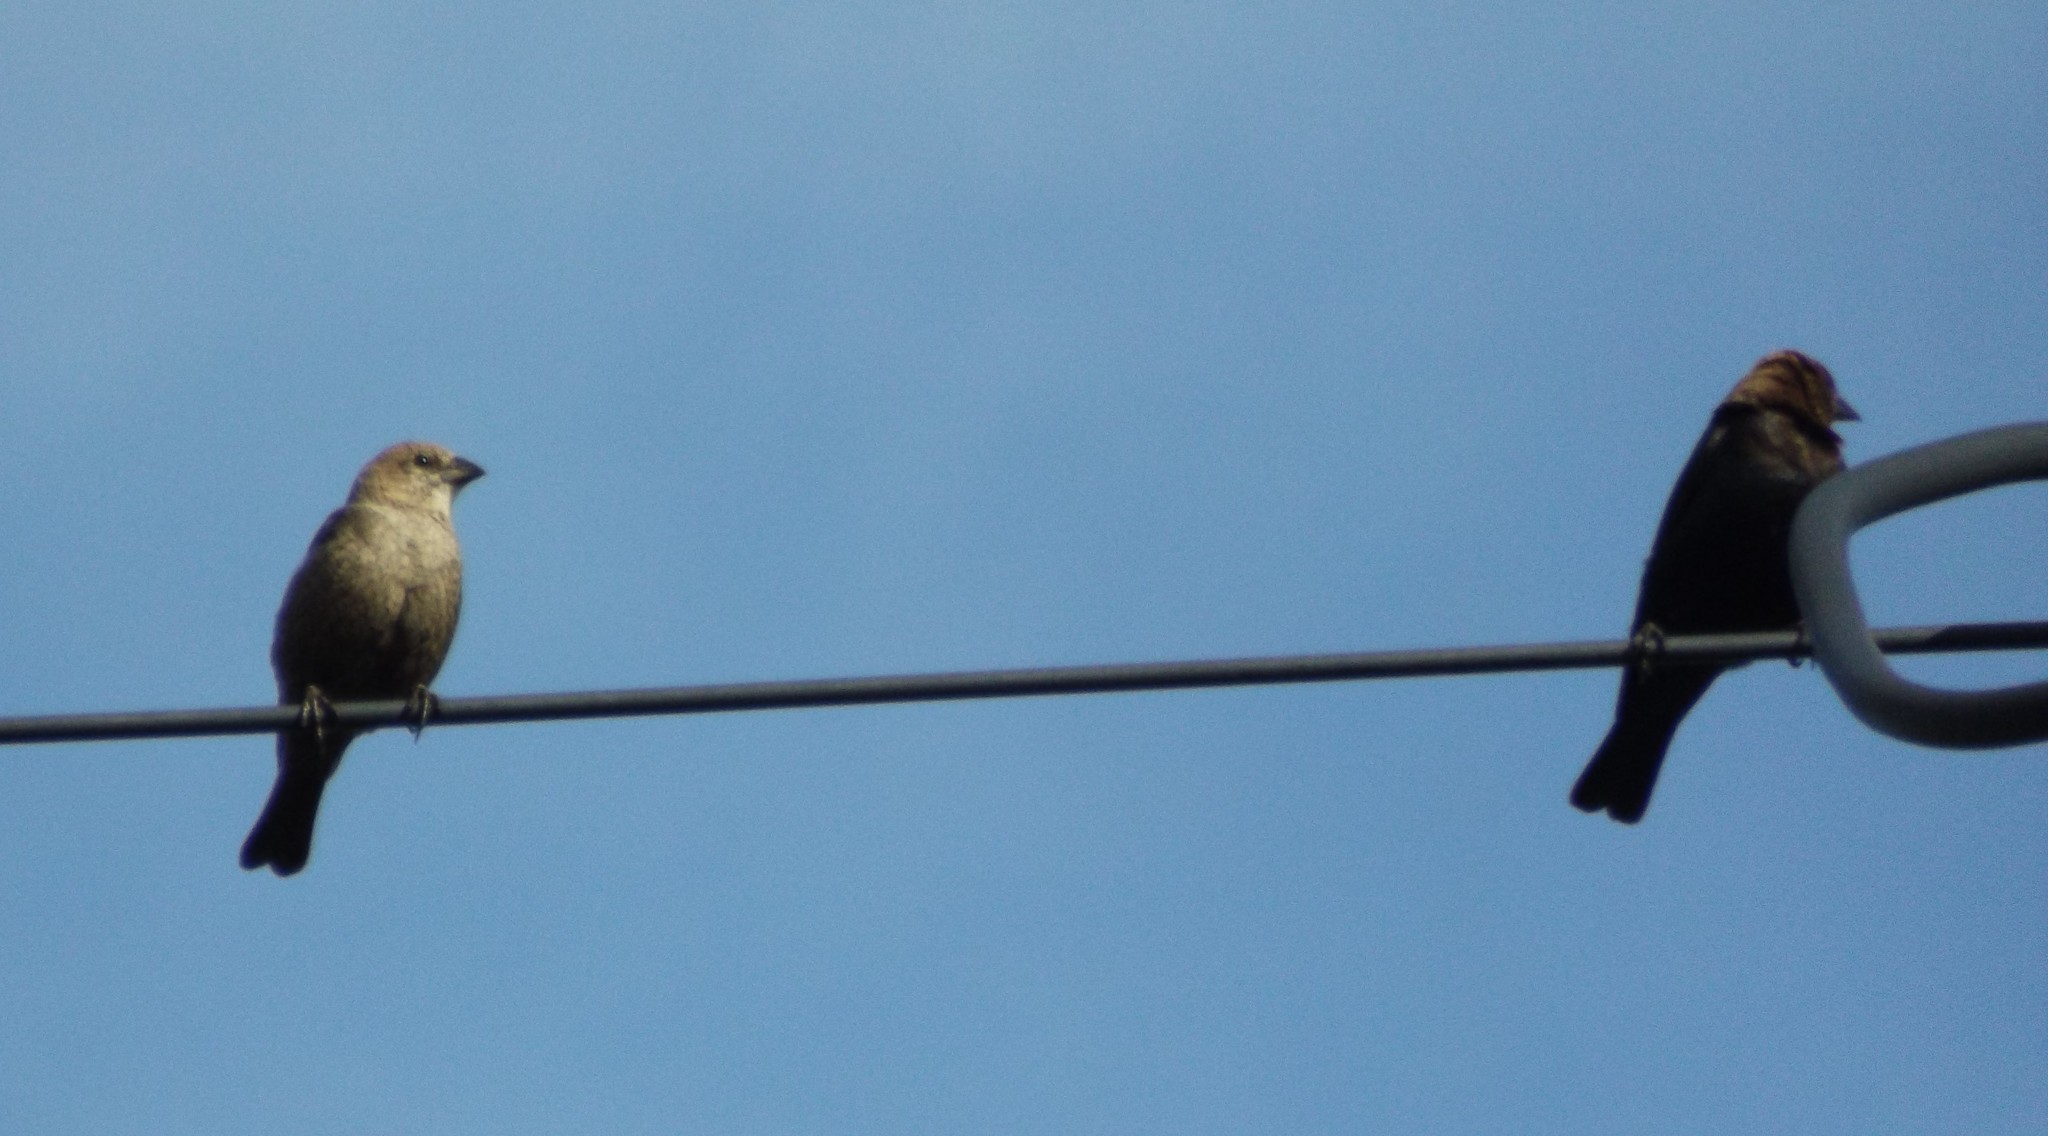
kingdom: Animalia
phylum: Chordata
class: Aves
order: Passeriformes
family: Icteridae
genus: Molothrus
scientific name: Molothrus ater
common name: Brown-headed cowbird
